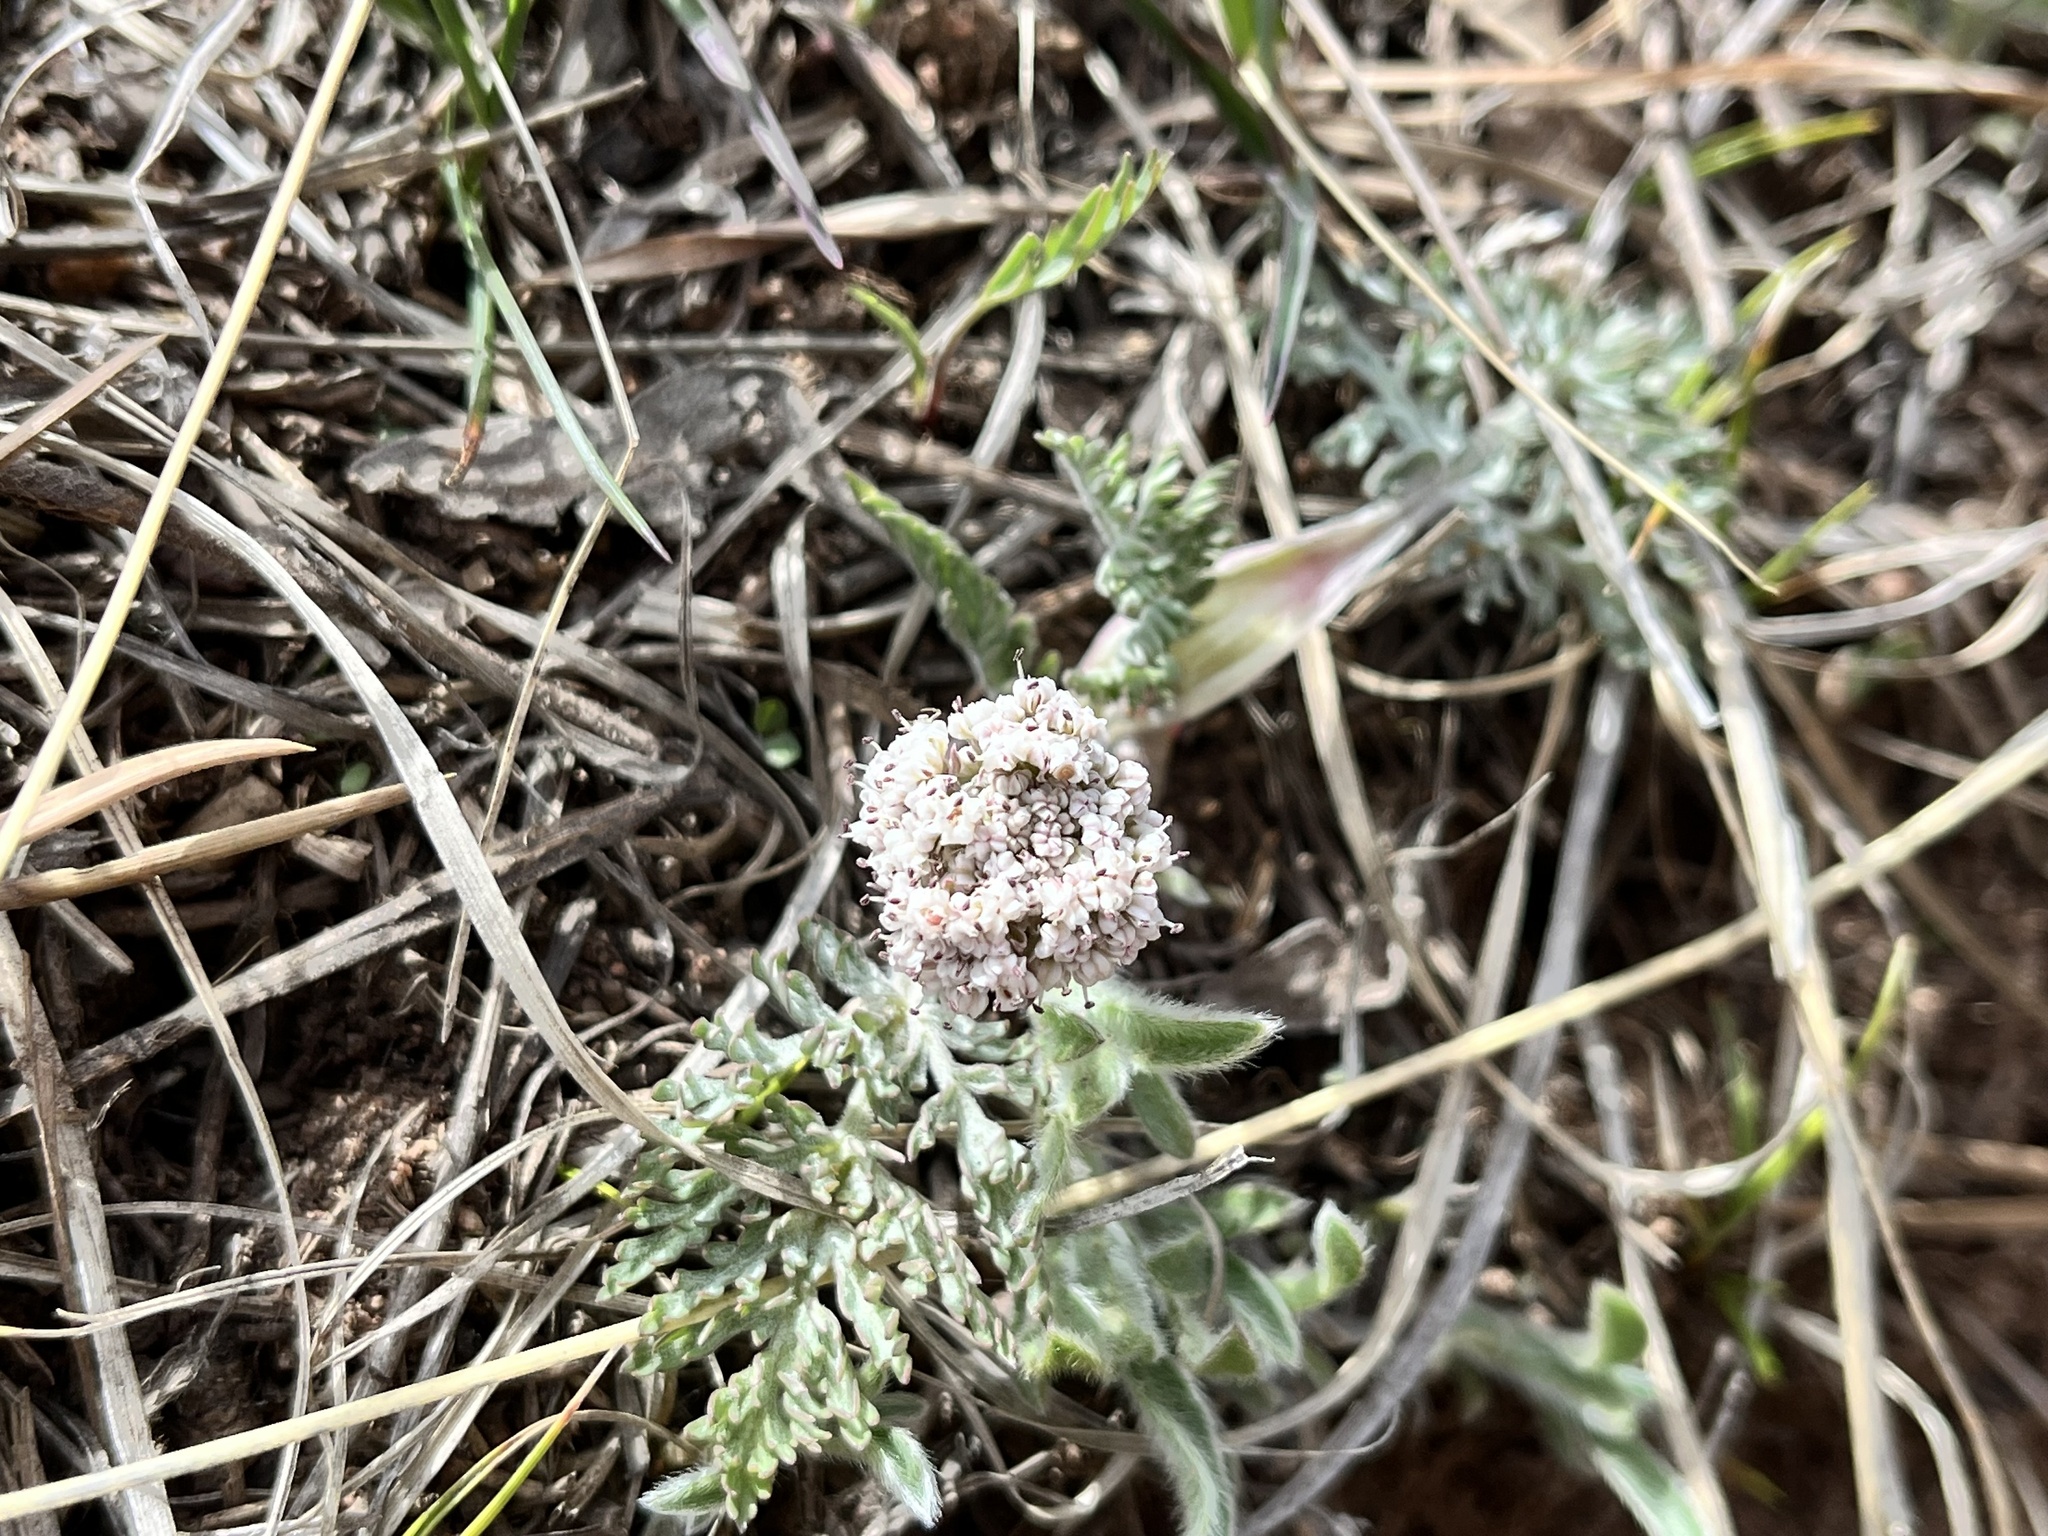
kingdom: Plantae
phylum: Tracheophyta
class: Magnoliopsida
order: Apiales
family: Apiaceae
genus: Lomatium
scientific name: Lomatium orientale
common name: Eastern cous
